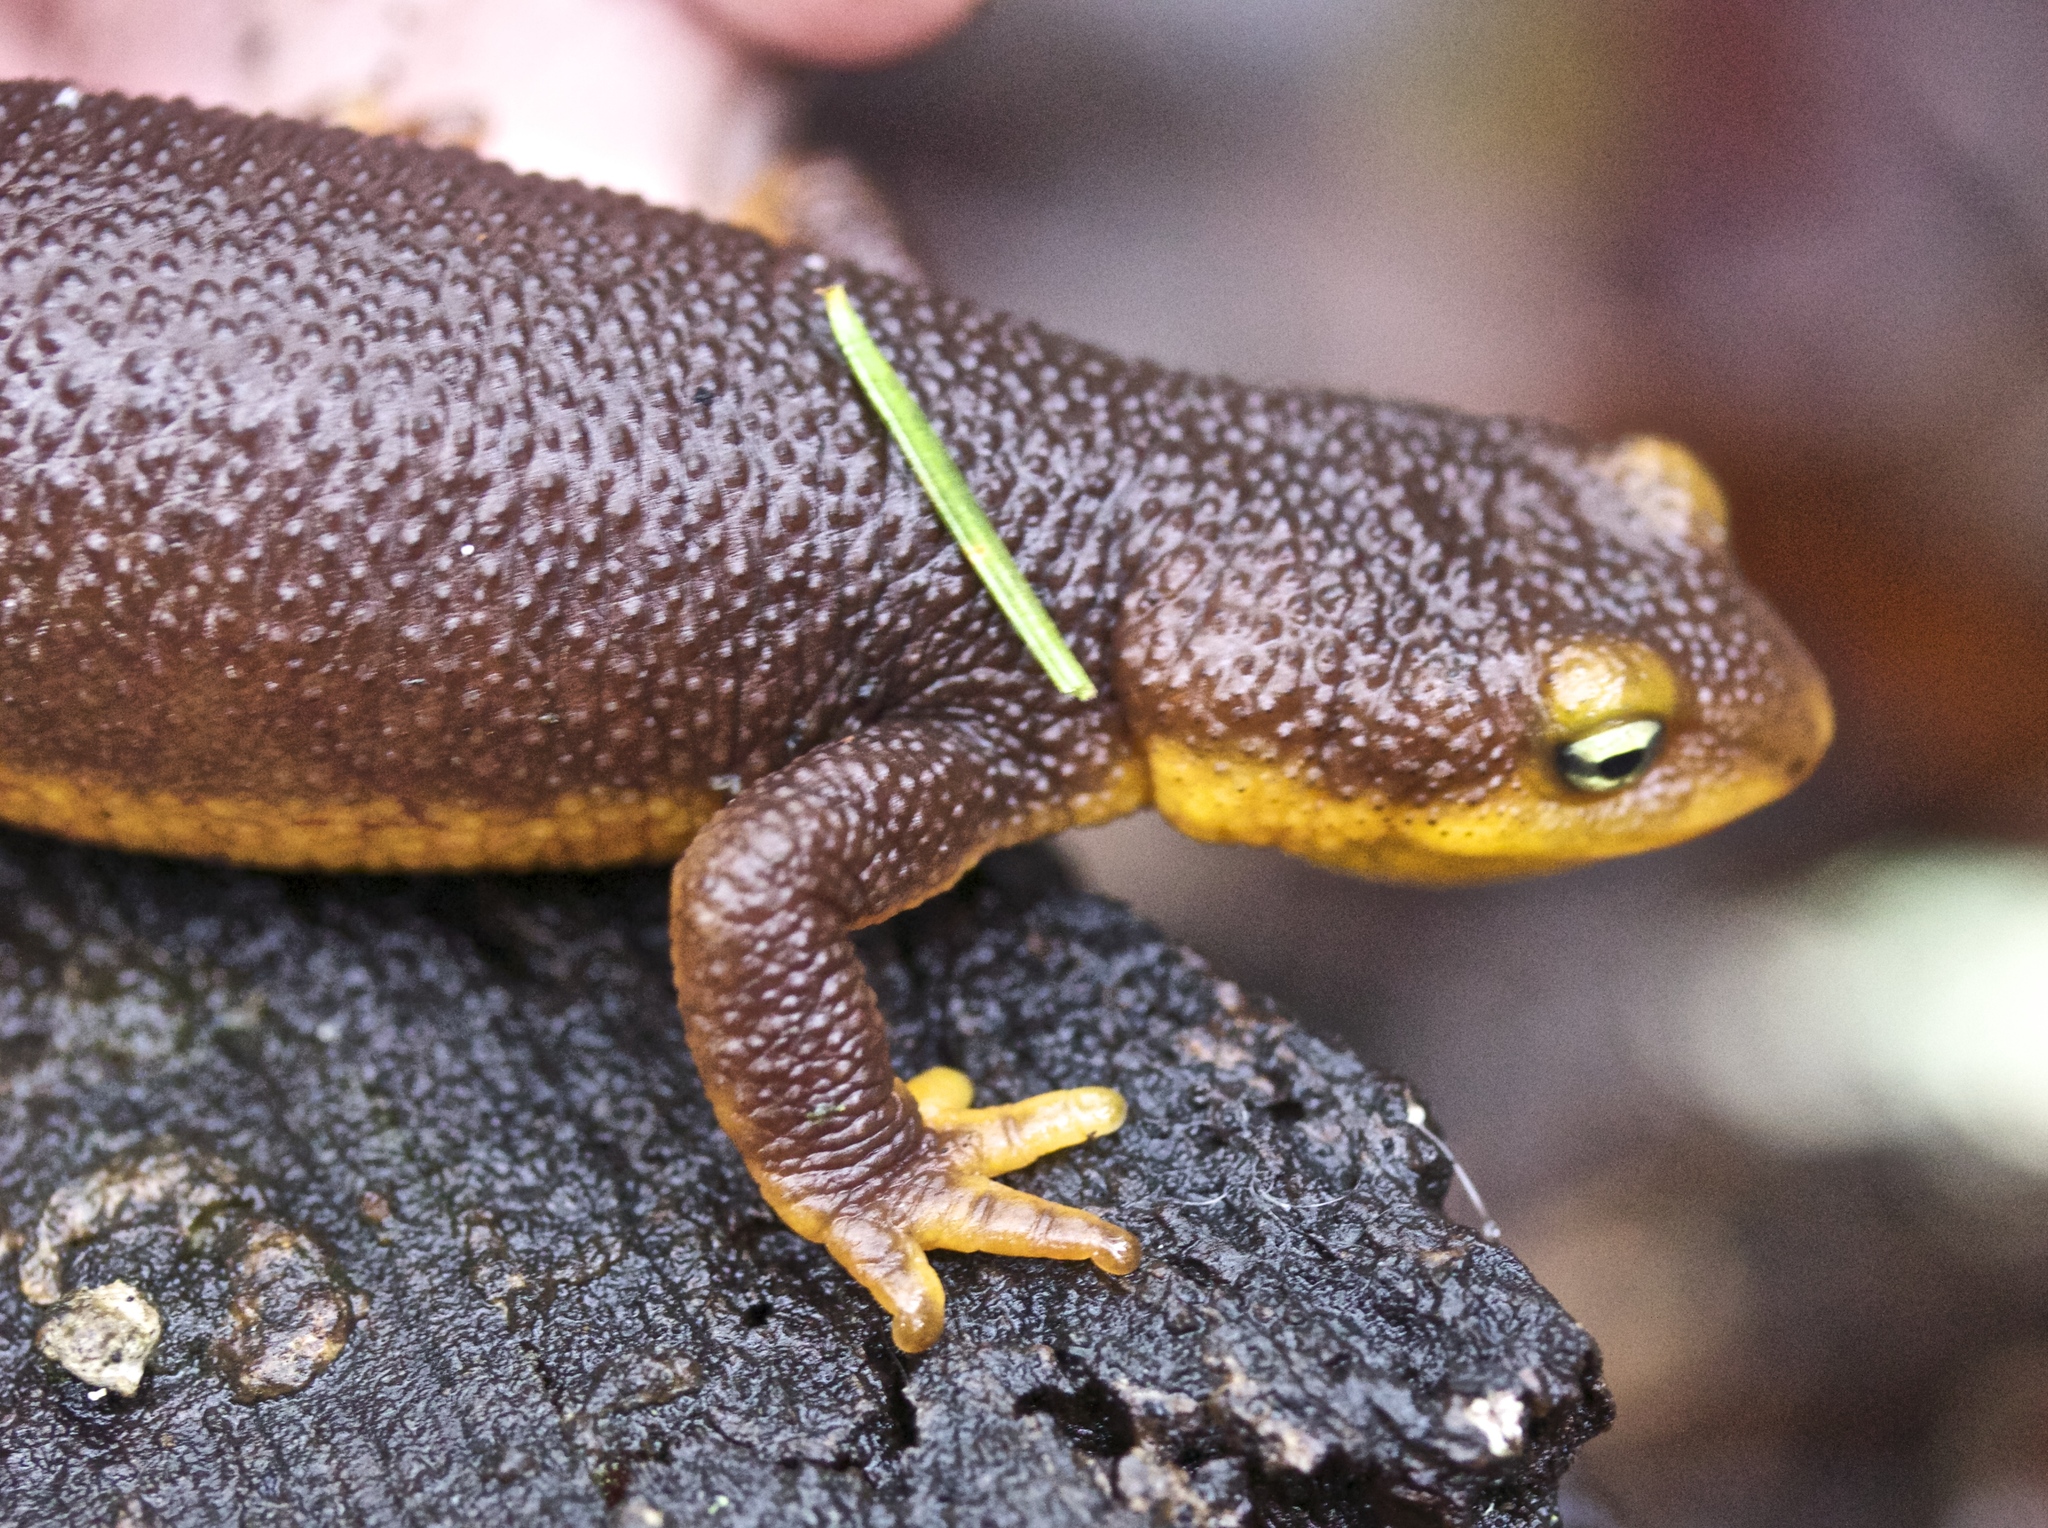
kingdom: Animalia
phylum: Chordata
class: Amphibia
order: Caudata
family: Salamandridae
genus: Taricha
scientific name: Taricha torosa
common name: California newt
